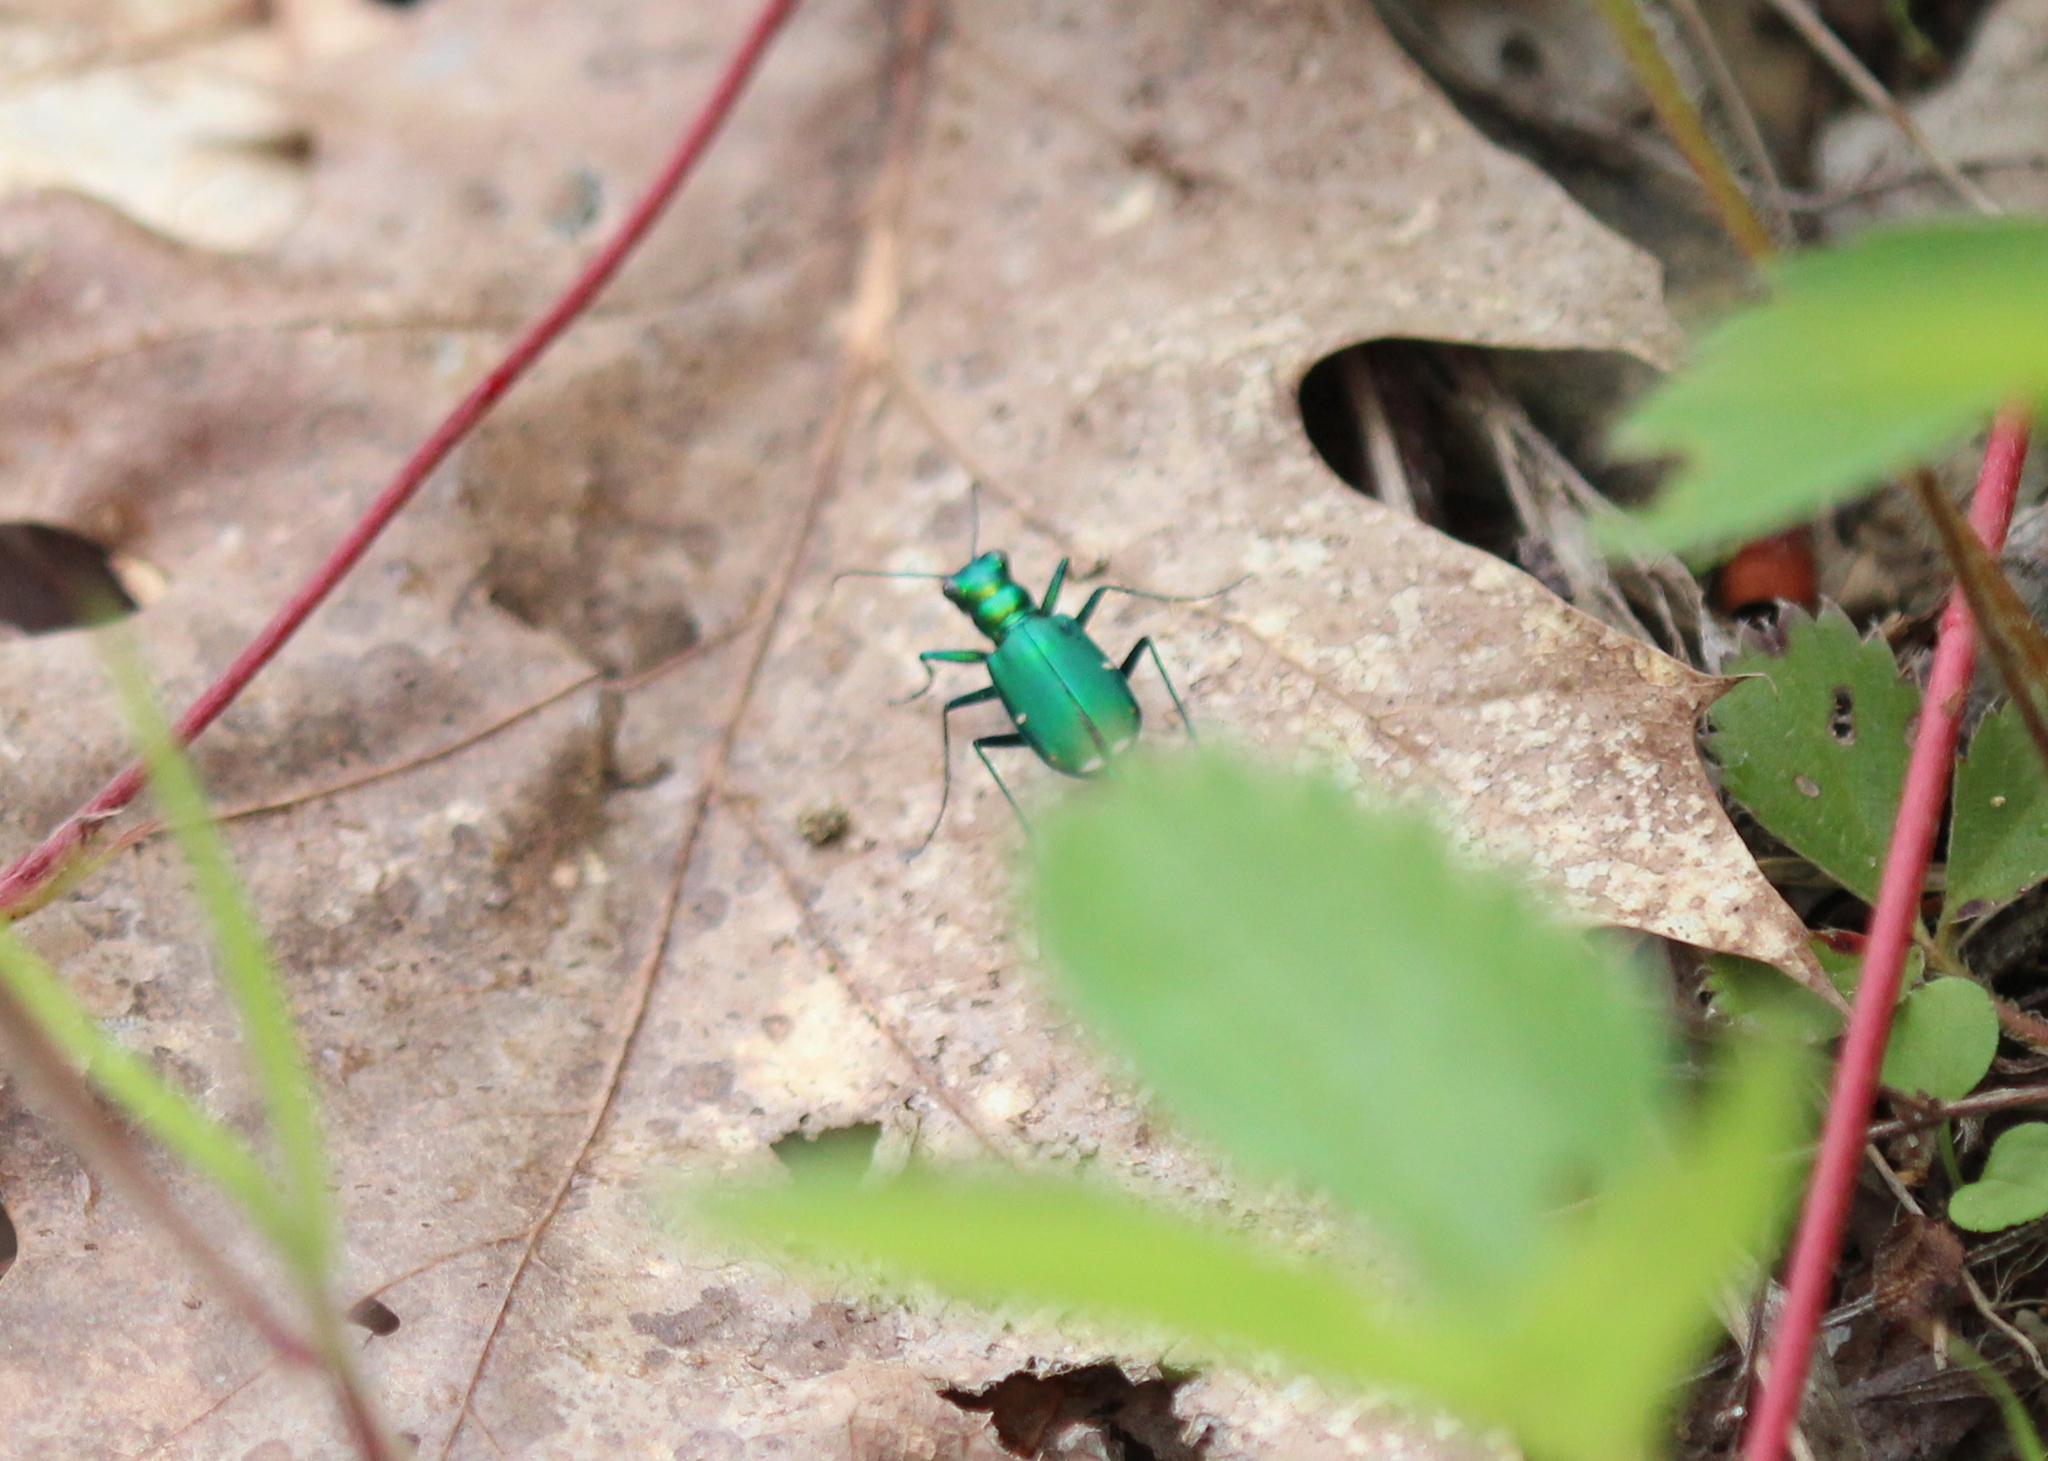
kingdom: Animalia
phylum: Arthropoda
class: Insecta
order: Coleoptera
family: Carabidae
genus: Cicindela
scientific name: Cicindela sexguttata
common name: Six-spotted tiger beetle
